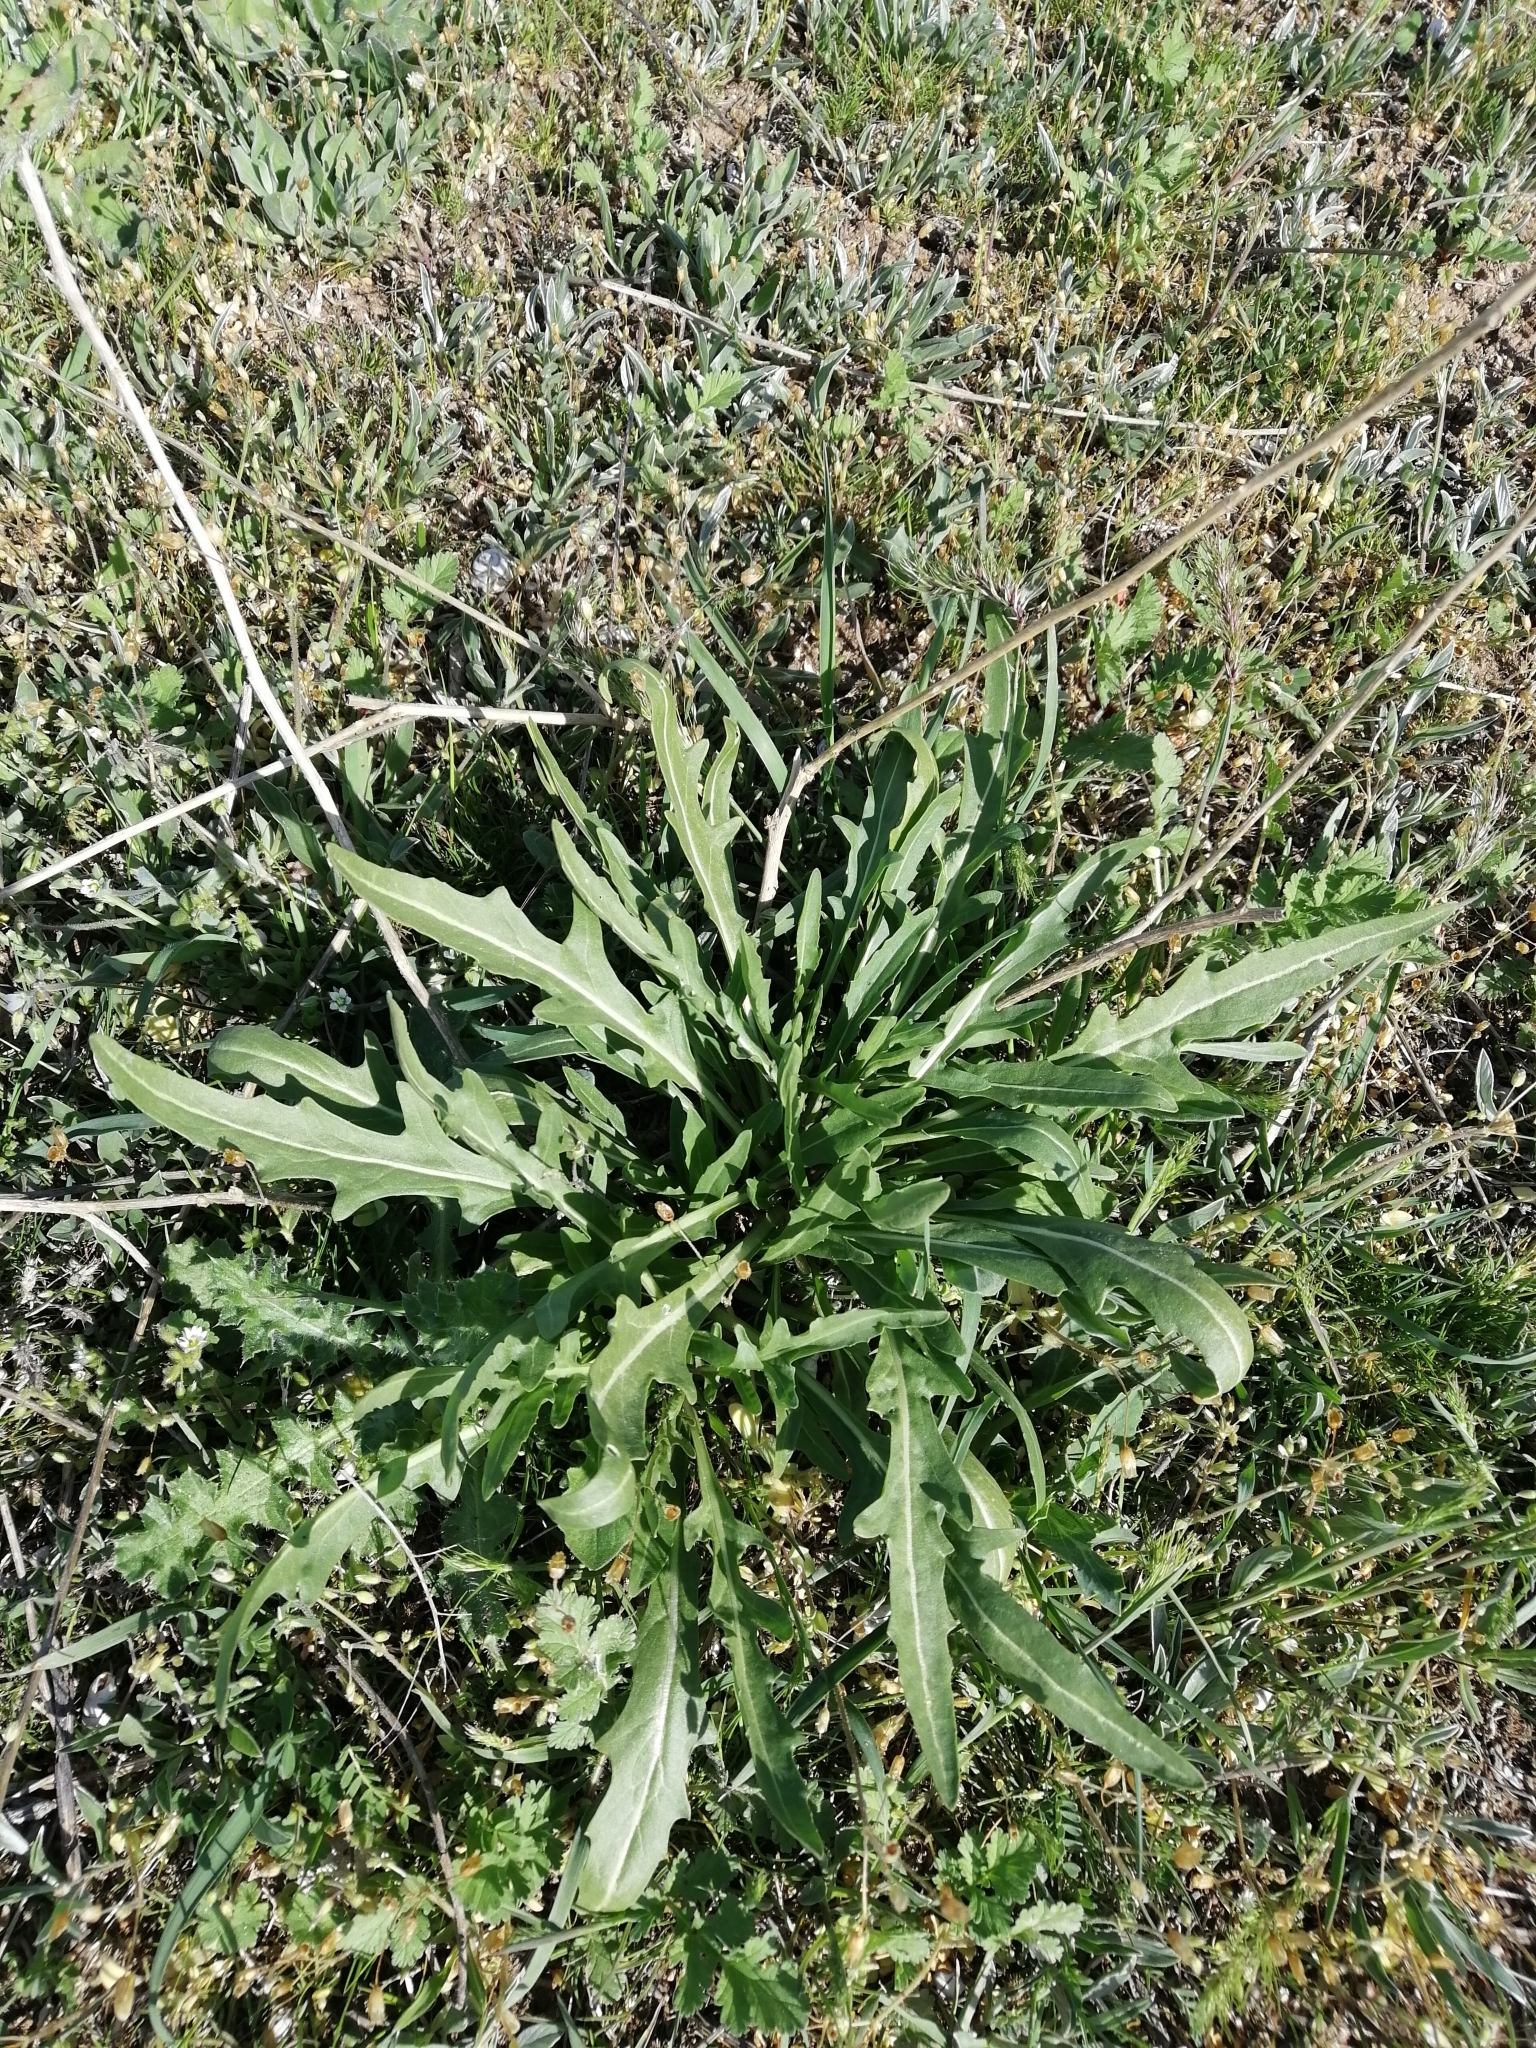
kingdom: Plantae
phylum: Tracheophyta
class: Magnoliopsida
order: Brassicales
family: Brassicaceae
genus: Diplotaxis
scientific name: Diplotaxis tenuifolia
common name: Perennial wall-rocket
